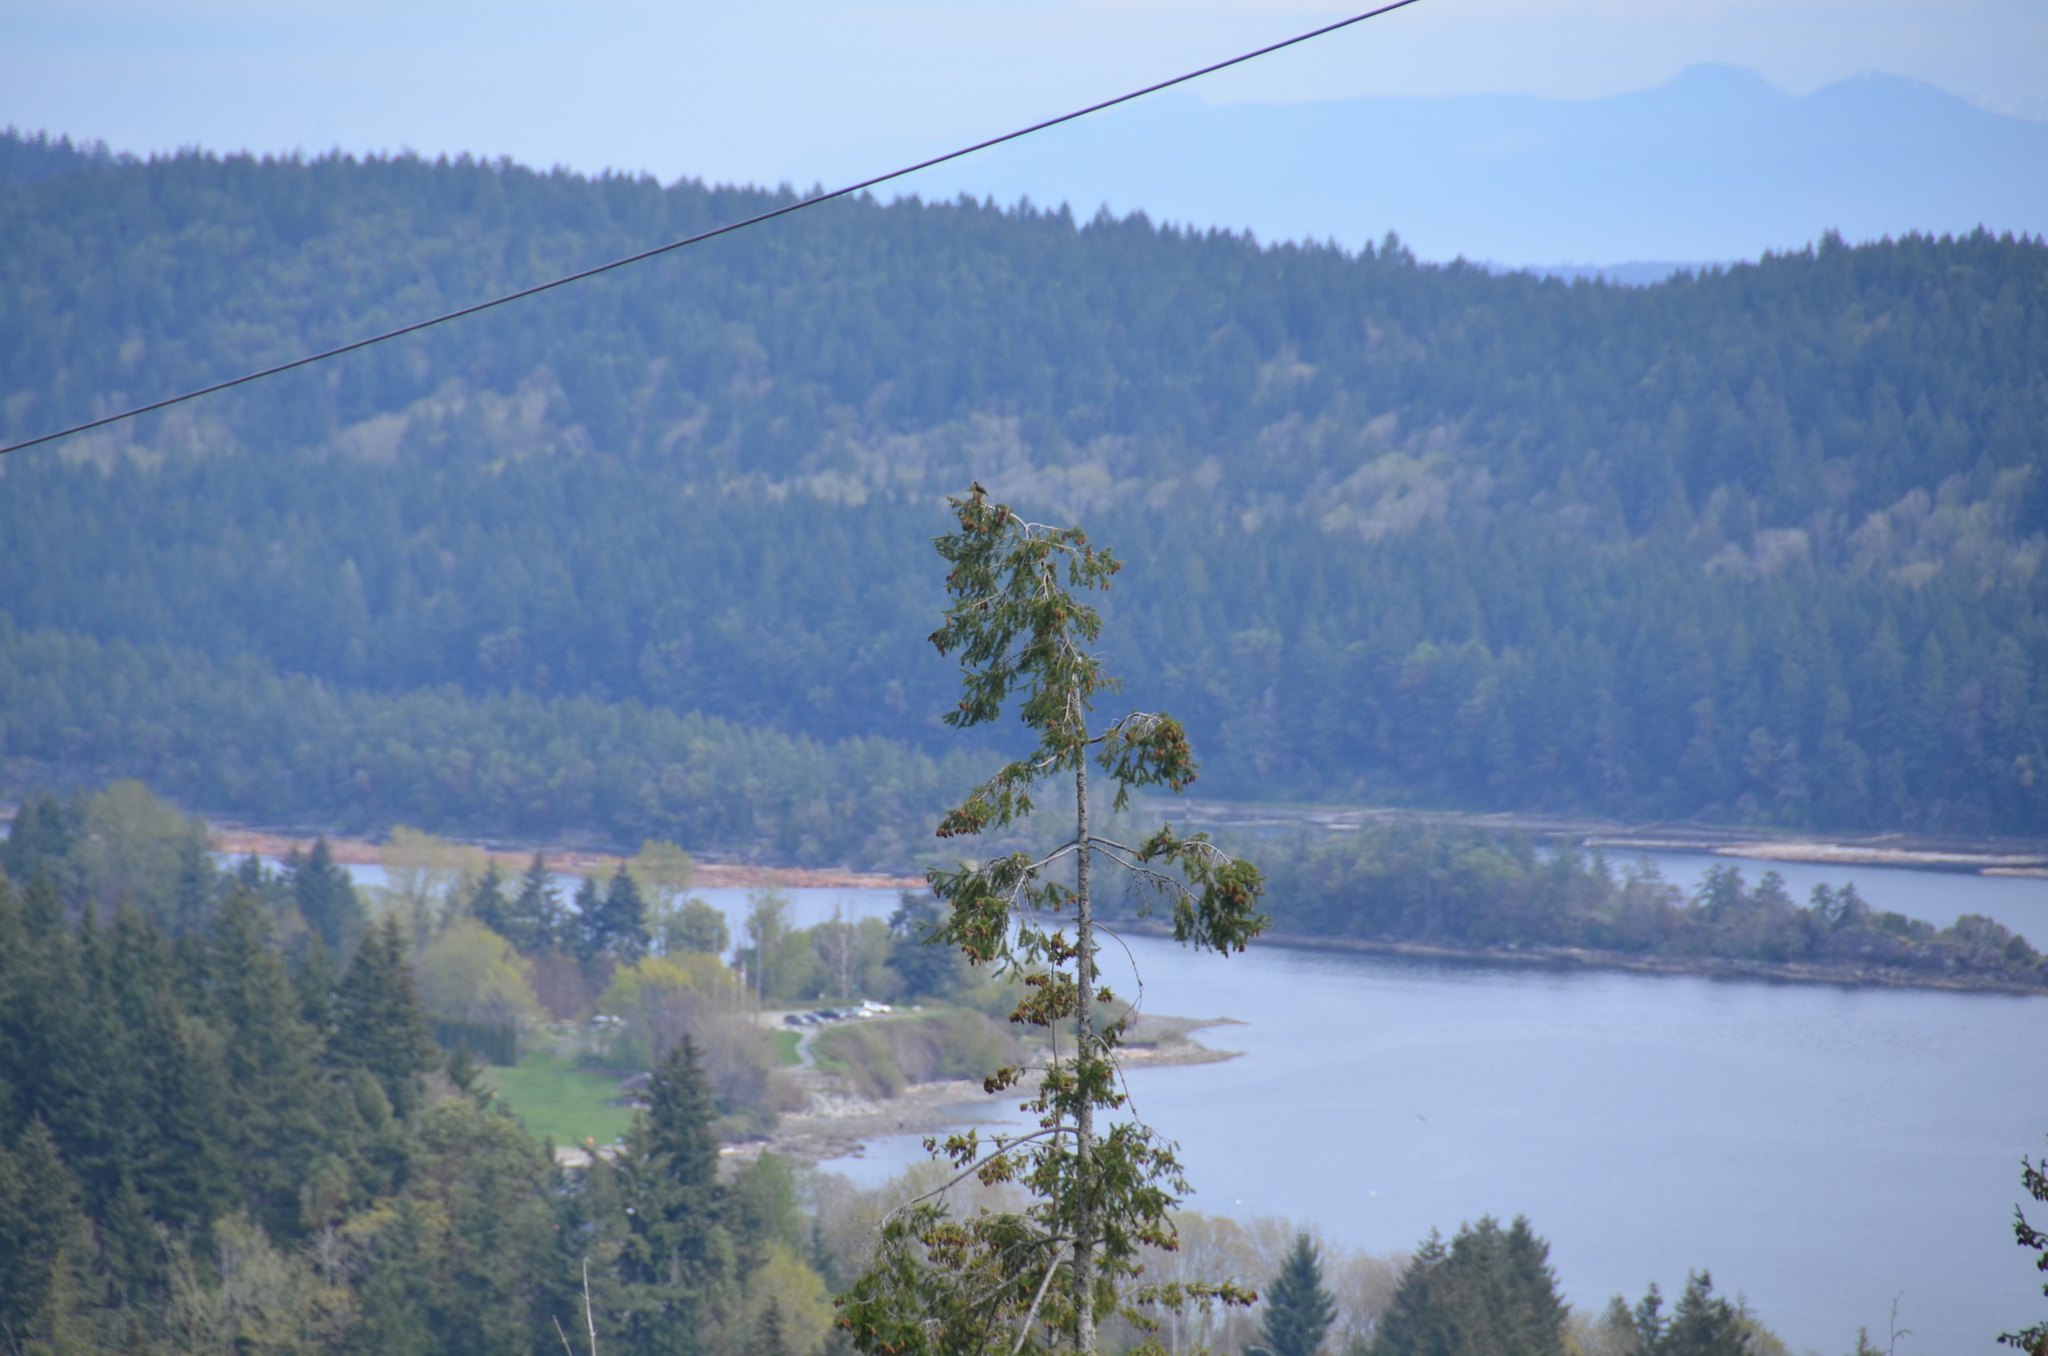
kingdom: Animalia
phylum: Chordata
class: Aves
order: Passeriformes
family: Sturnidae
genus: Sturnus
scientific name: Sturnus vulgaris
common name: Common starling
